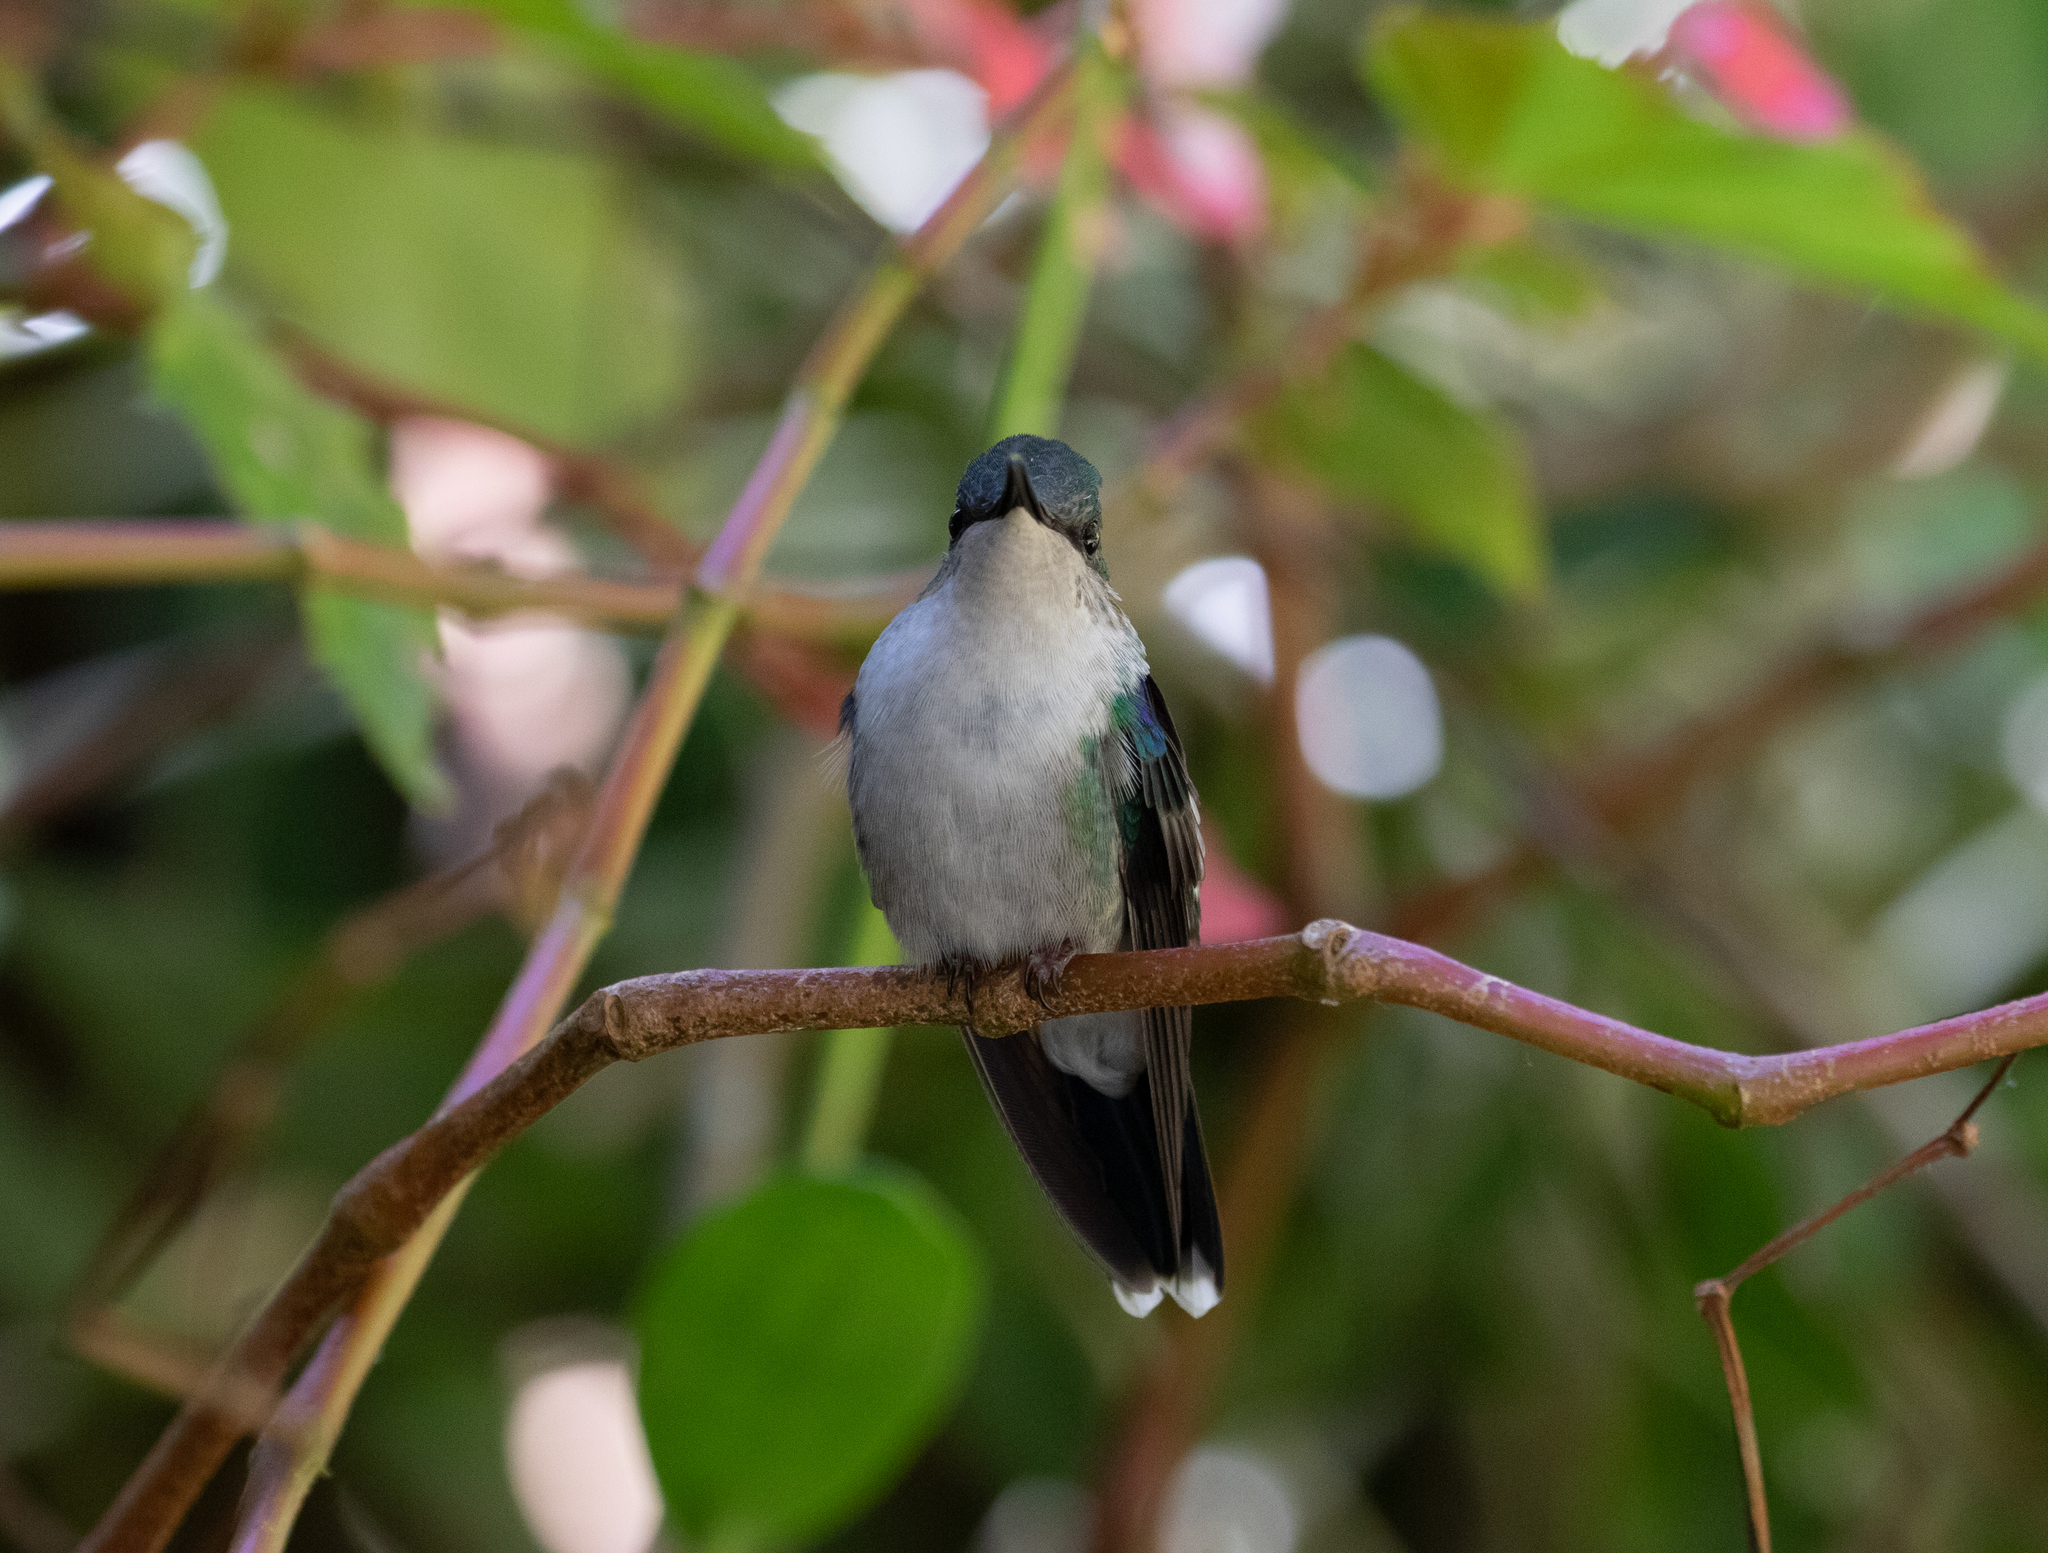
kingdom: Animalia
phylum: Chordata
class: Aves
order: Apodiformes
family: Trochilidae
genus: Thalurania
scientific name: Thalurania colombica
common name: Crowned woodnymph
